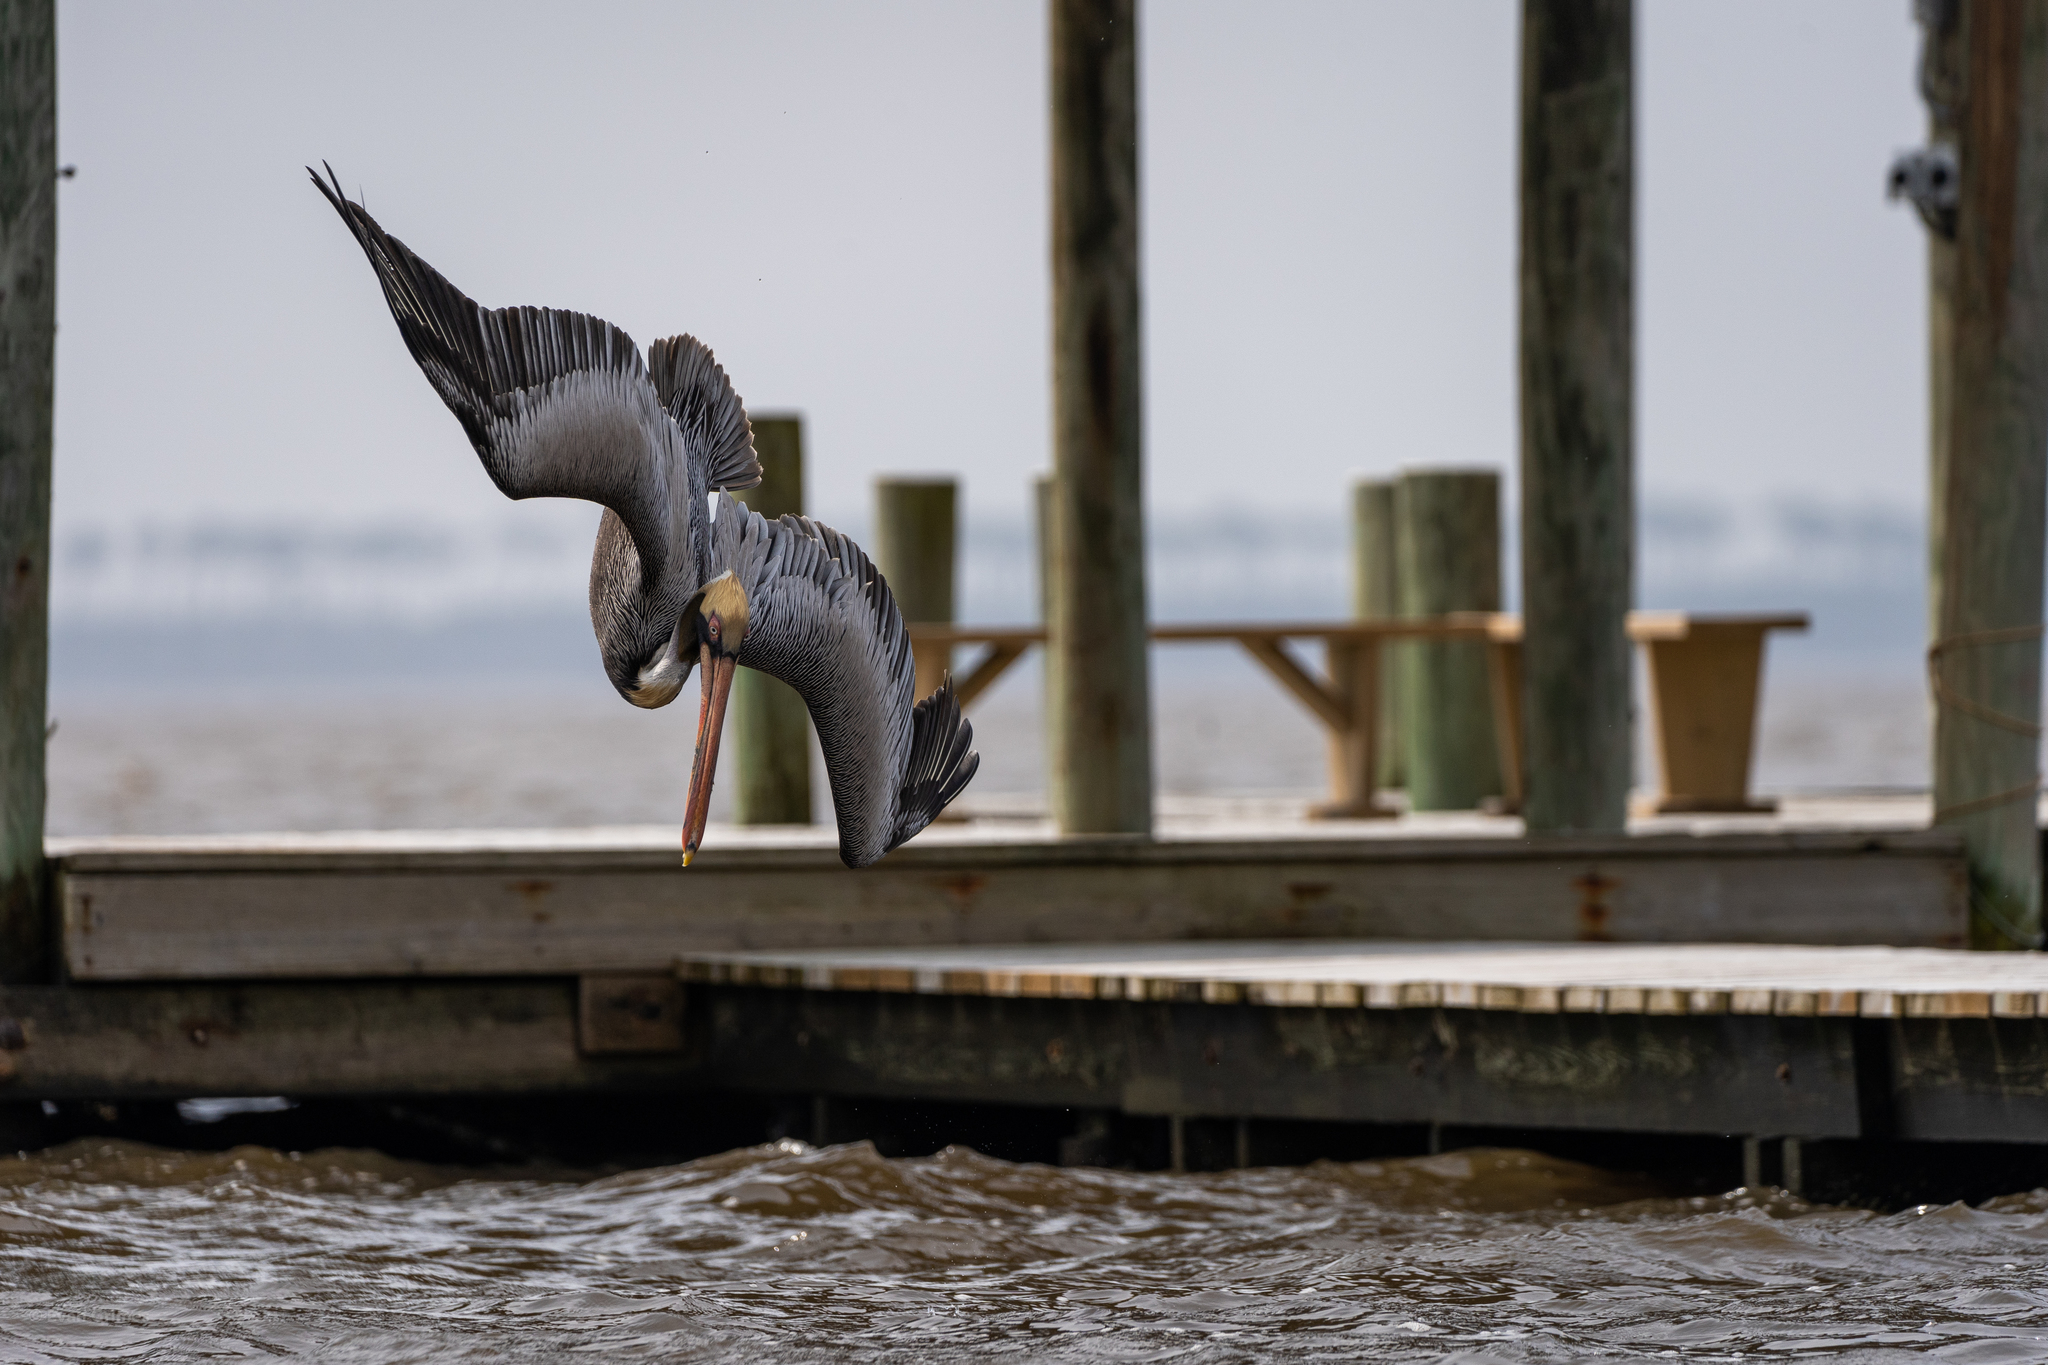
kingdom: Animalia
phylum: Chordata
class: Aves
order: Pelecaniformes
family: Pelecanidae
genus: Pelecanus
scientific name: Pelecanus occidentalis
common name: Brown pelican
